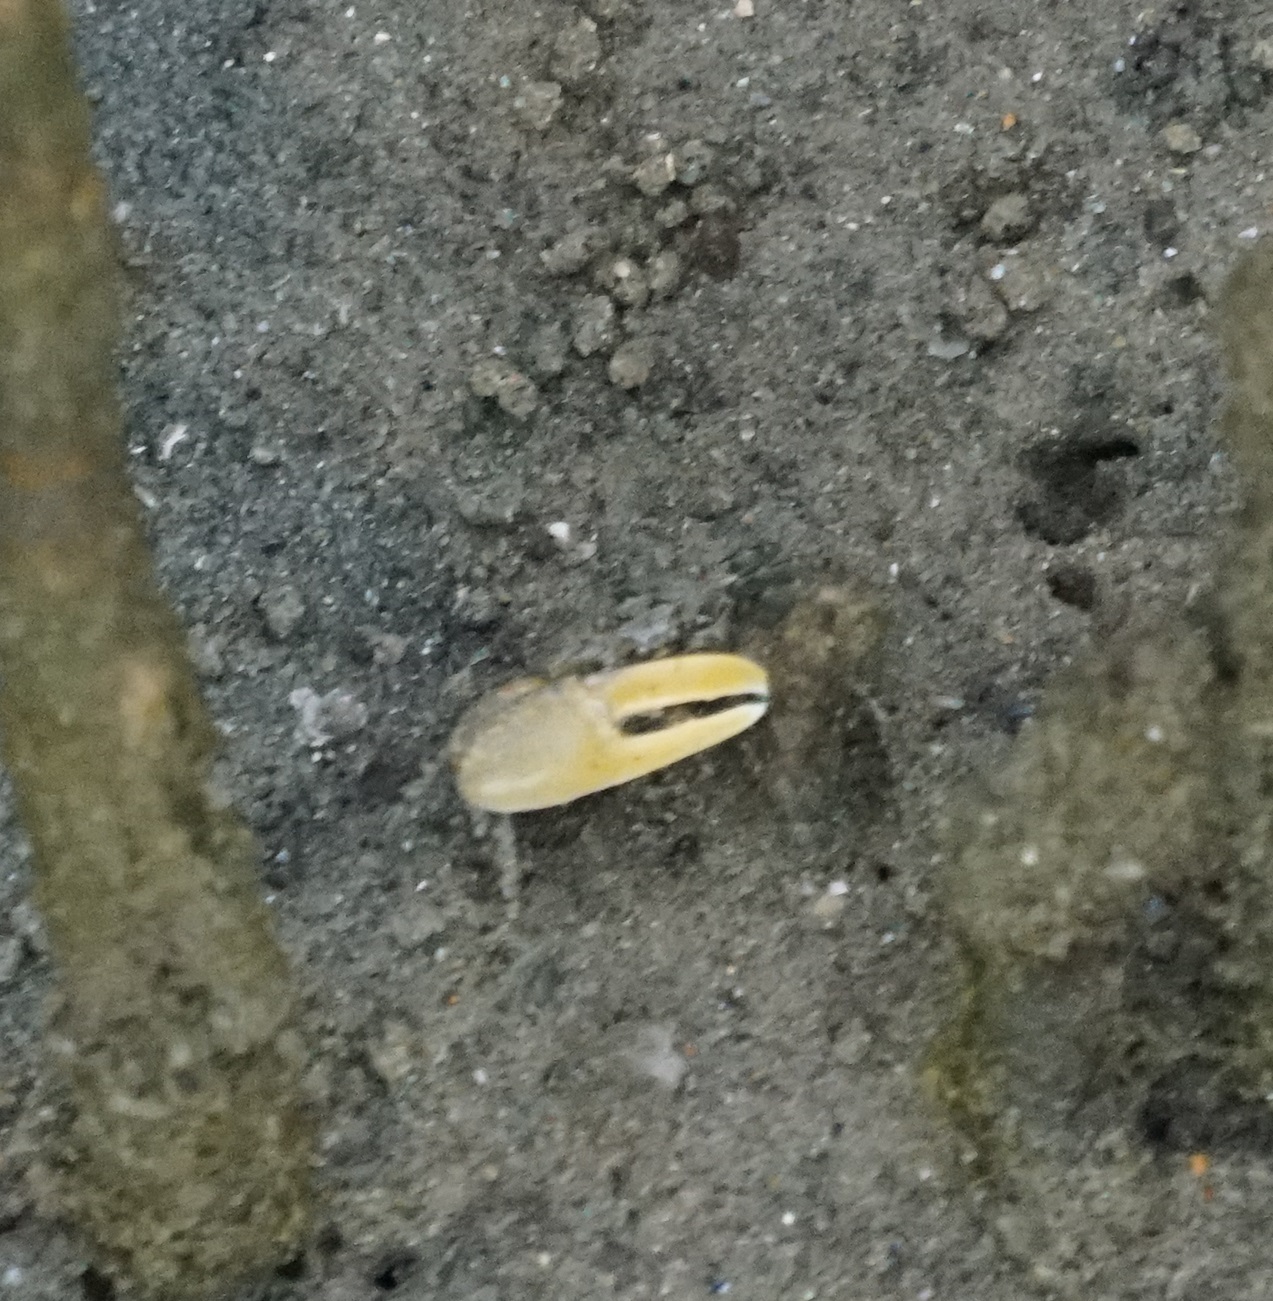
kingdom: Animalia
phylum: Arthropoda
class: Malacostraca
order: Decapoda
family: Ocypodidae
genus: Austruca
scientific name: Austruca perplexa
